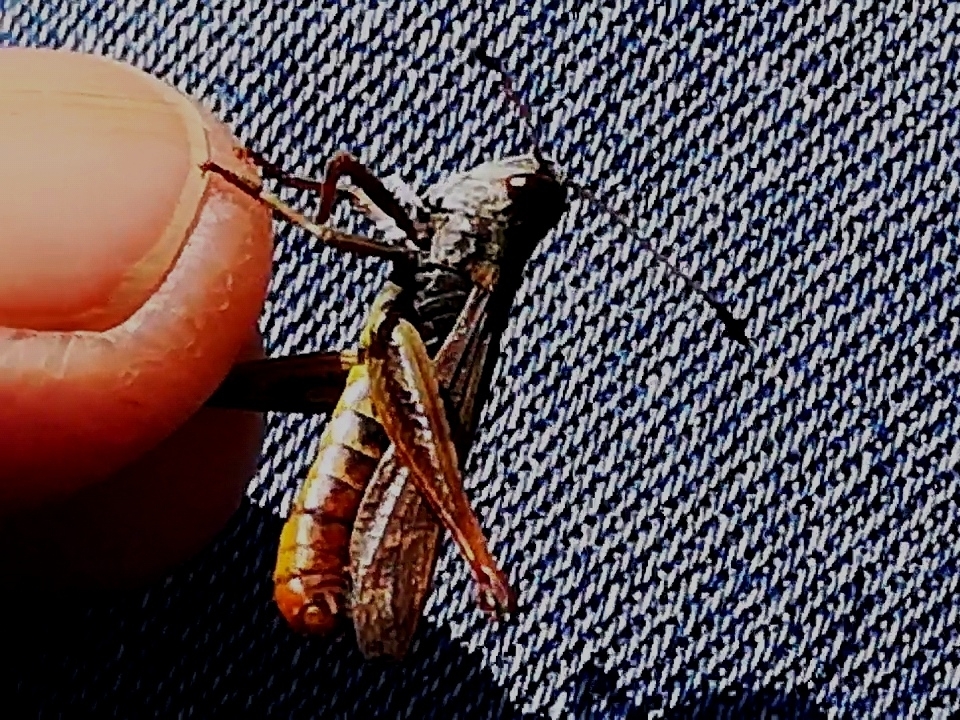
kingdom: Animalia
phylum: Arthropoda
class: Insecta
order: Orthoptera
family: Acrididae
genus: Gomphocerippus
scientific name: Gomphocerippus rufus
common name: Rufous grasshopper
